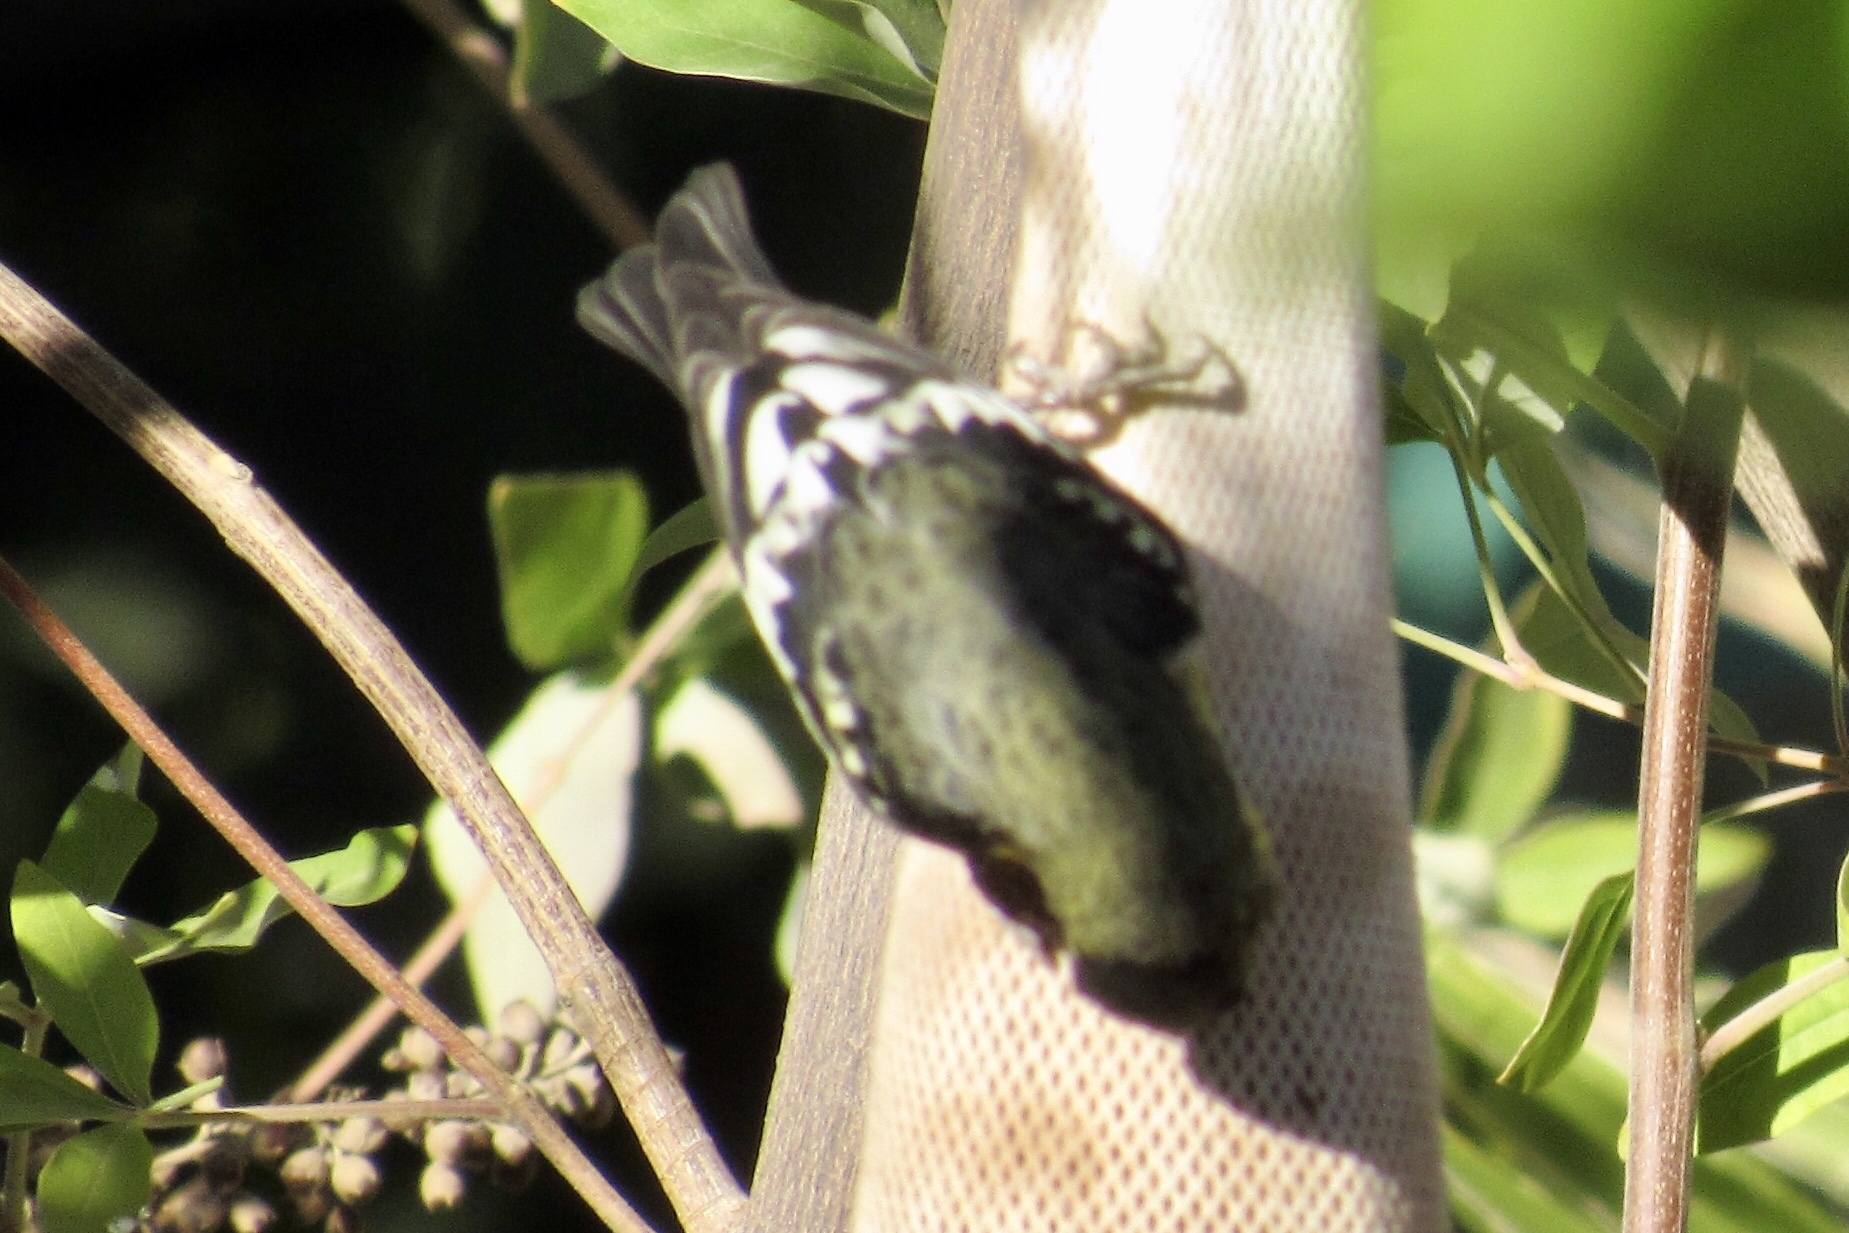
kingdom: Animalia
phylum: Chordata
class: Aves
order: Passeriformes
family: Fringillidae
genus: Spinus
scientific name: Spinus psaltria
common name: Lesser goldfinch
